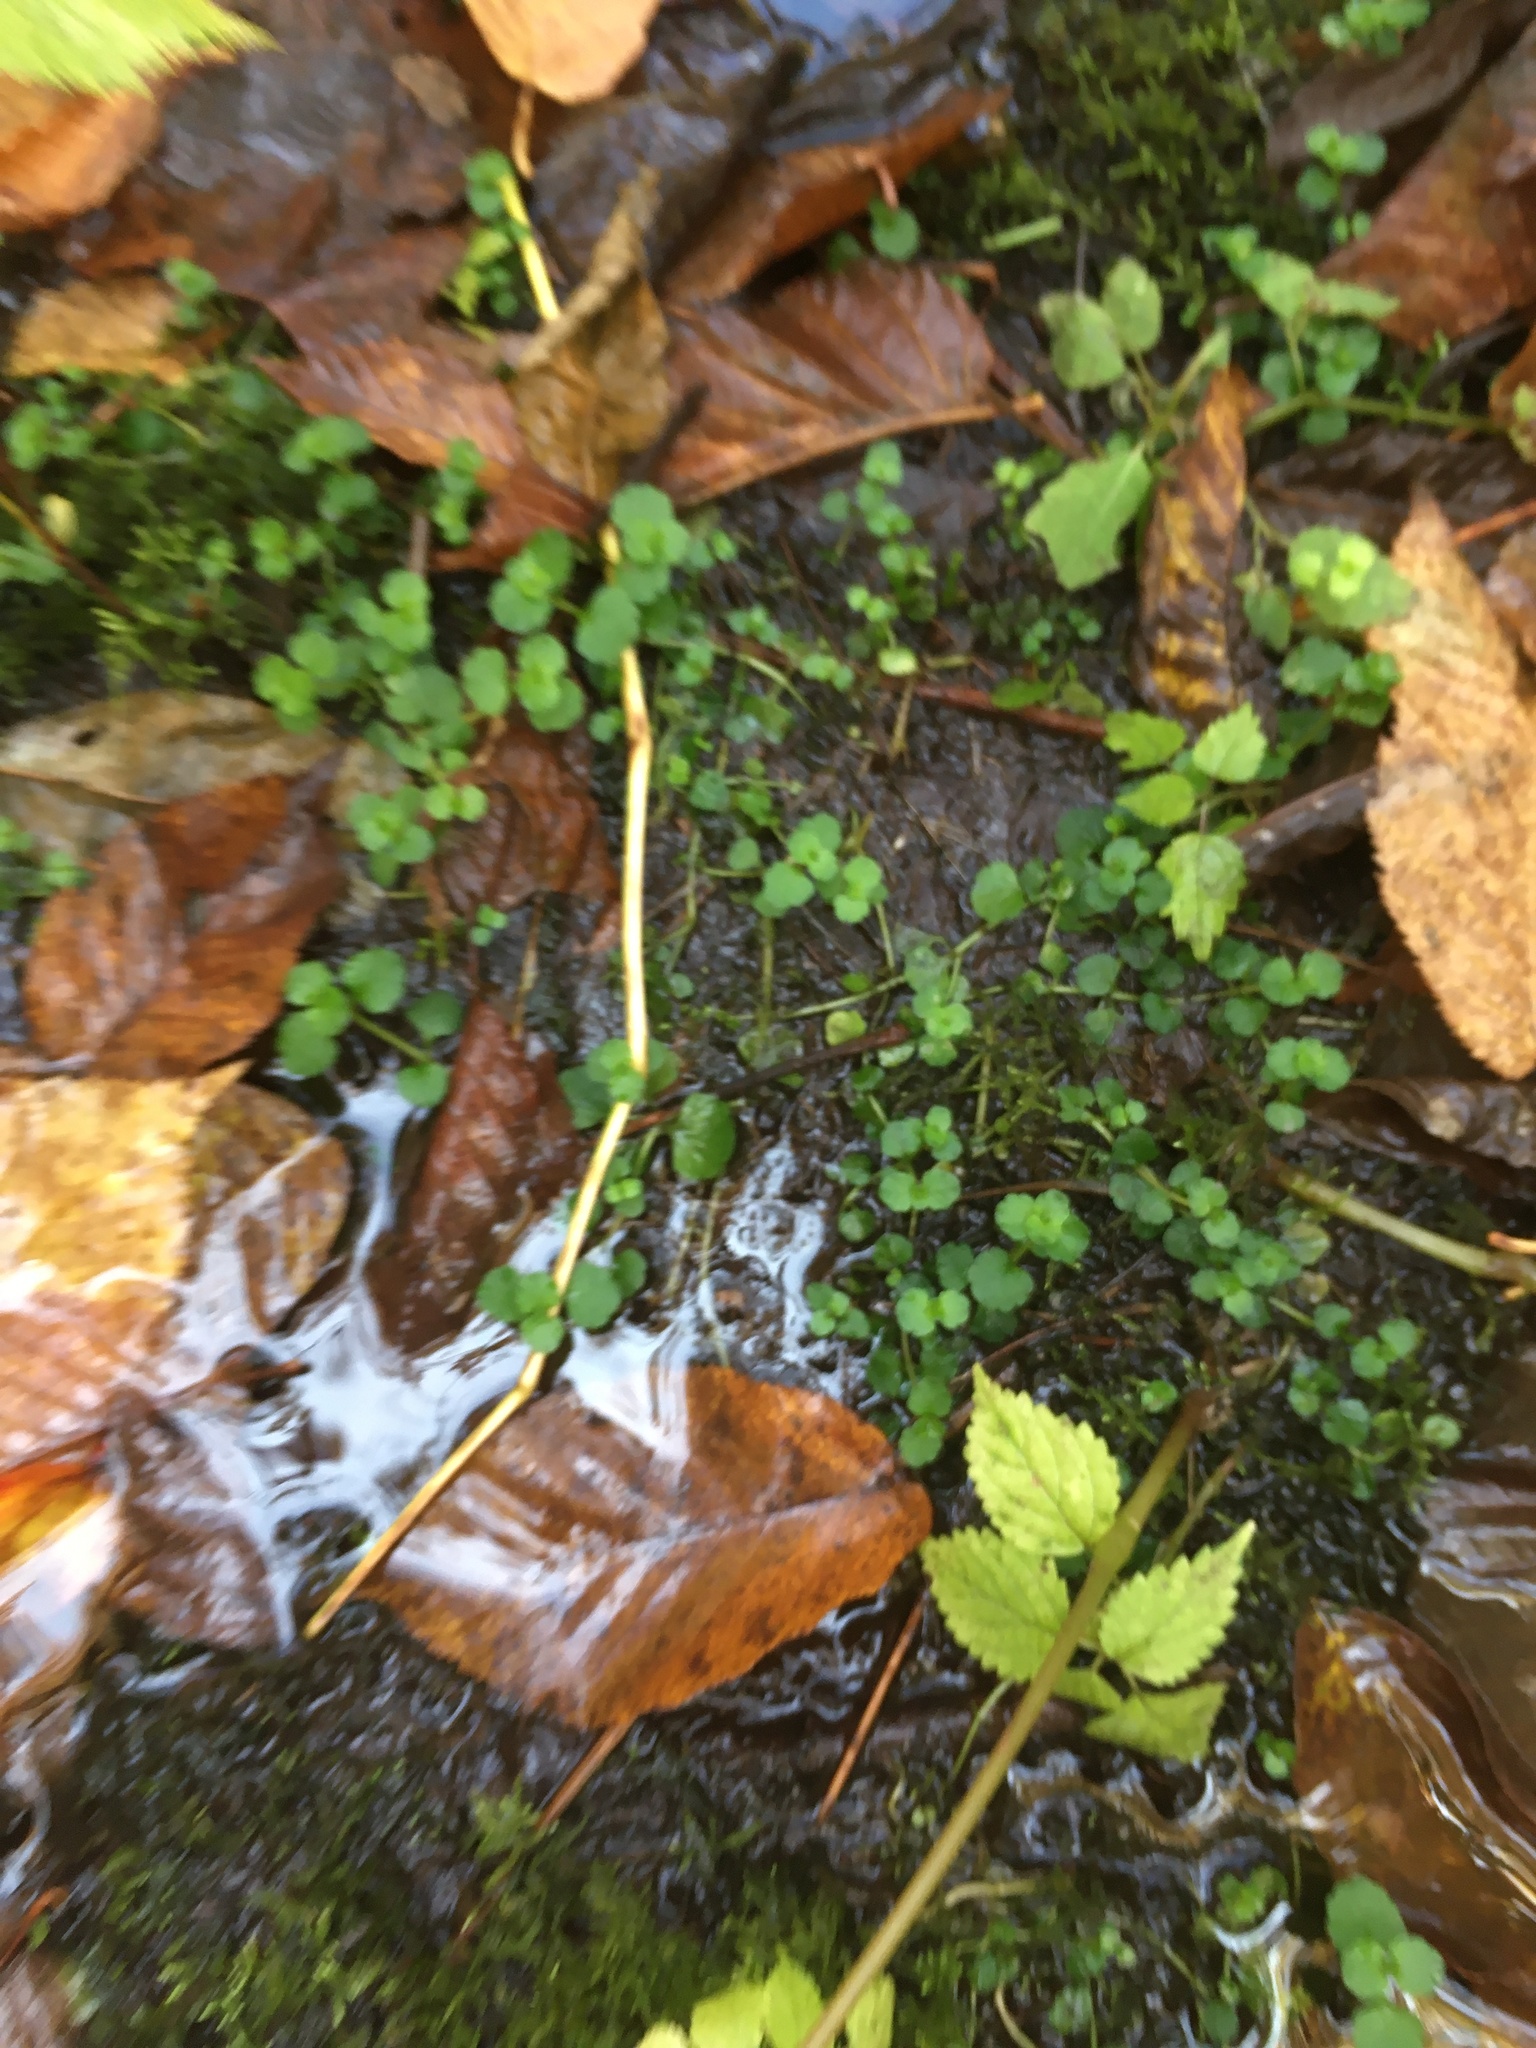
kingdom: Plantae
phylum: Tracheophyta
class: Magnoliopsida
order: Saxifragales
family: Saxifragaceae
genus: Chrysosplenium
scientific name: Chrysosplenium americanum
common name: American golden-saxifrage
